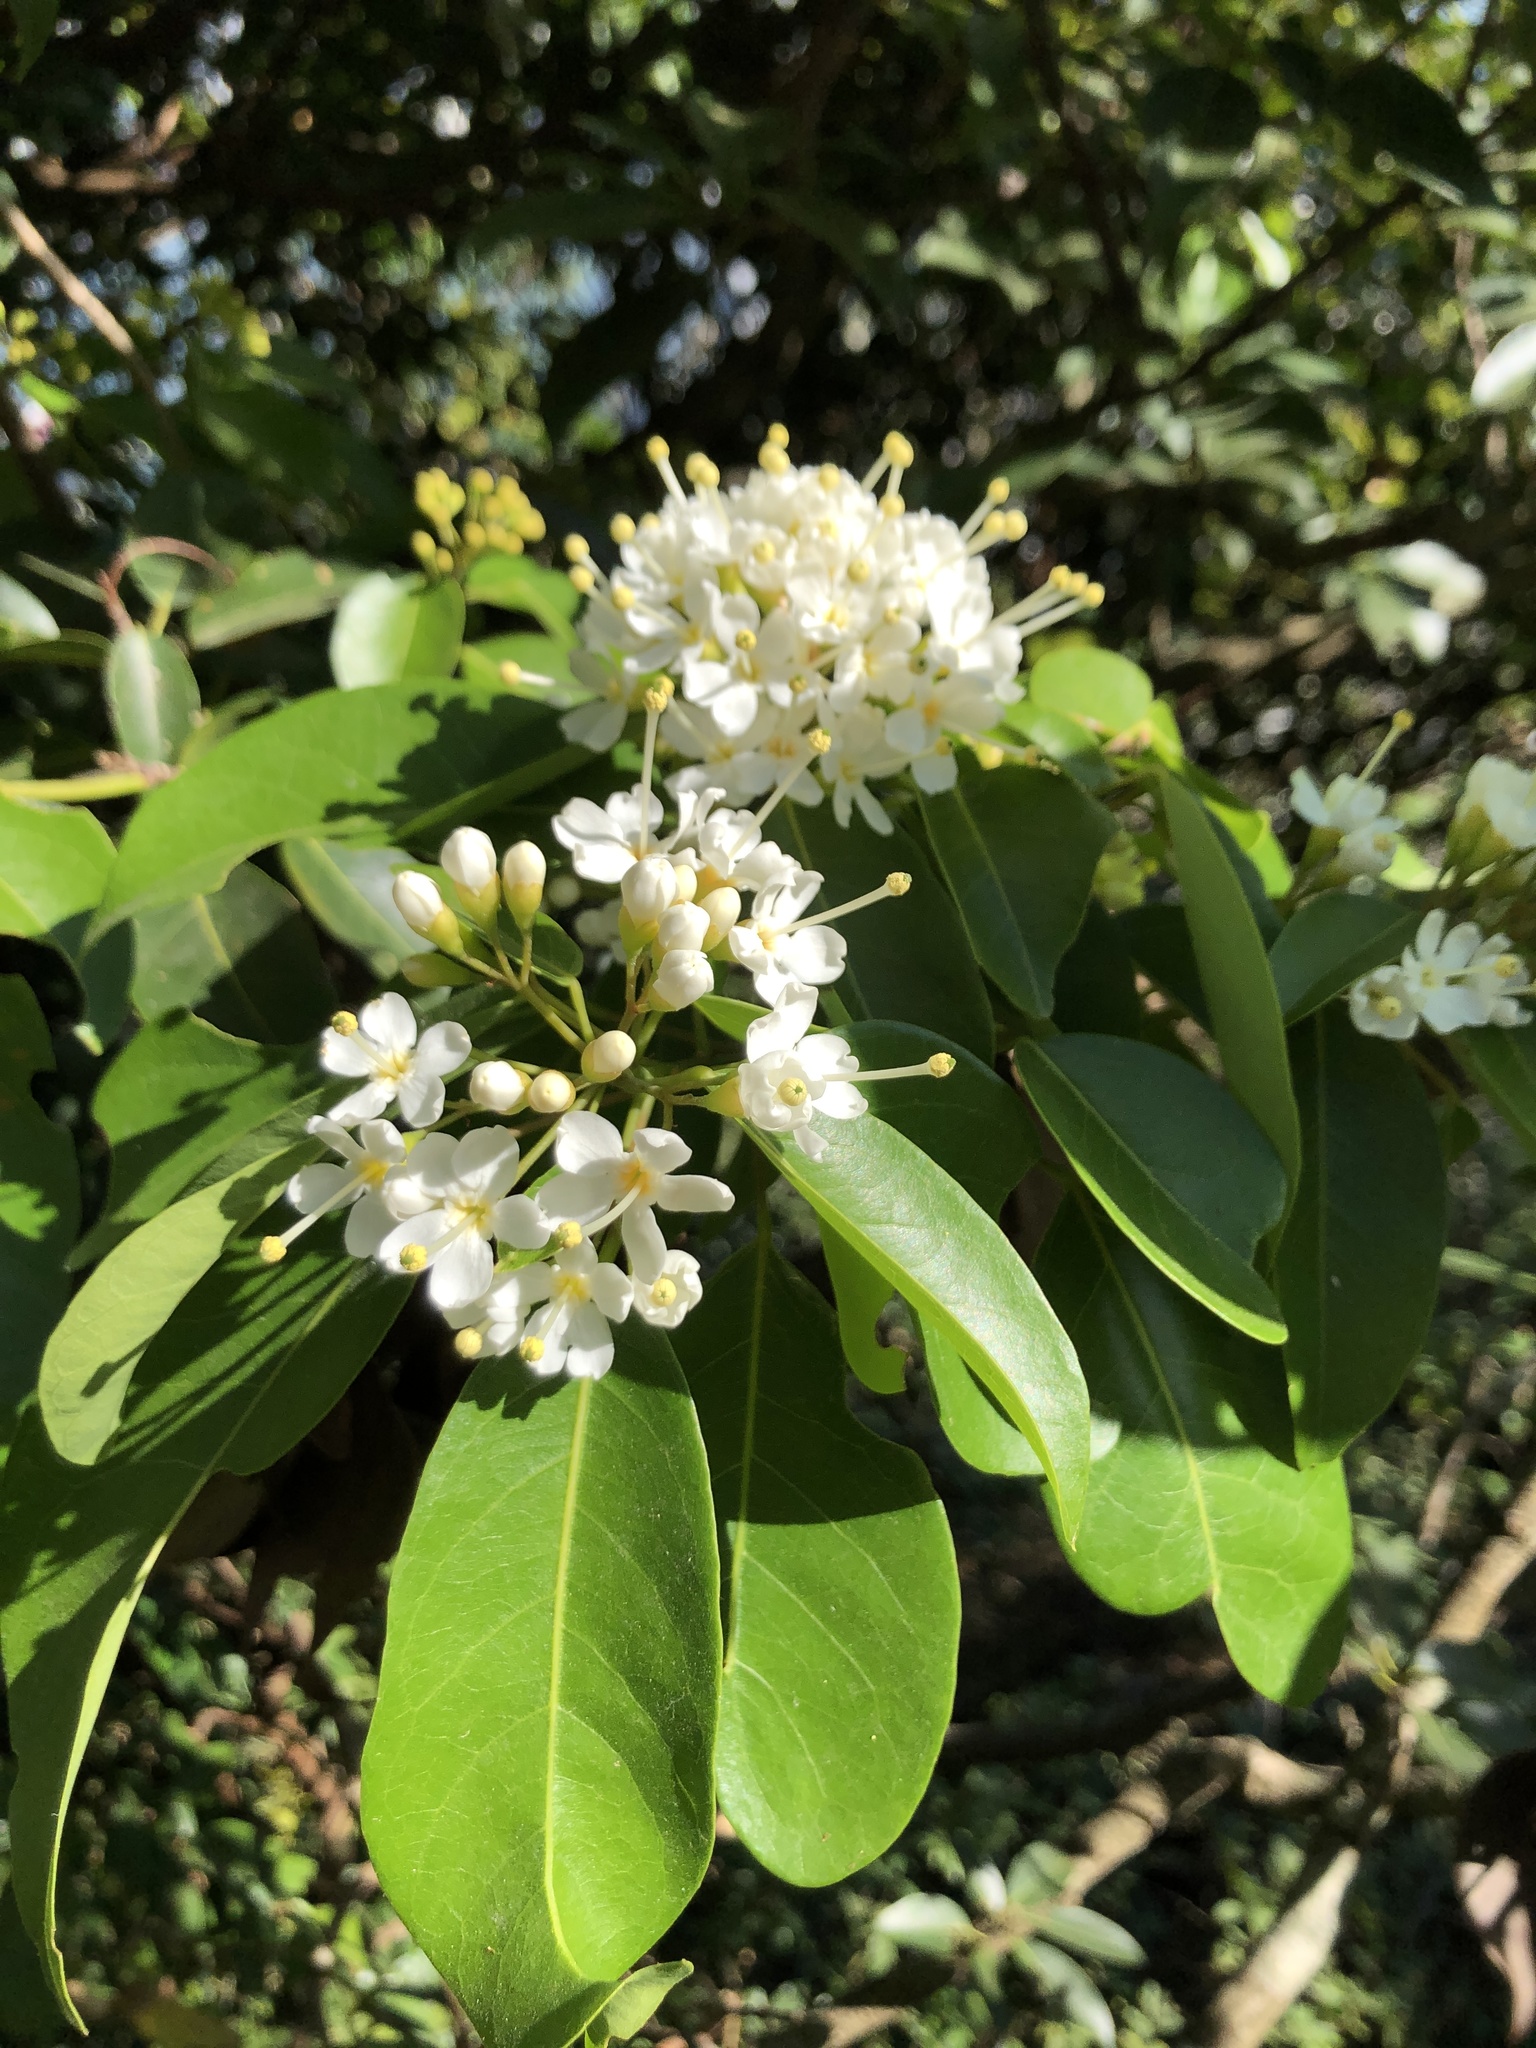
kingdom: Plantae
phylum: Tracheophyta
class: Magnoliopsida
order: Malvales
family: Malvaceae
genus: Reevesia
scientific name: Reevesia thyrsoidea
